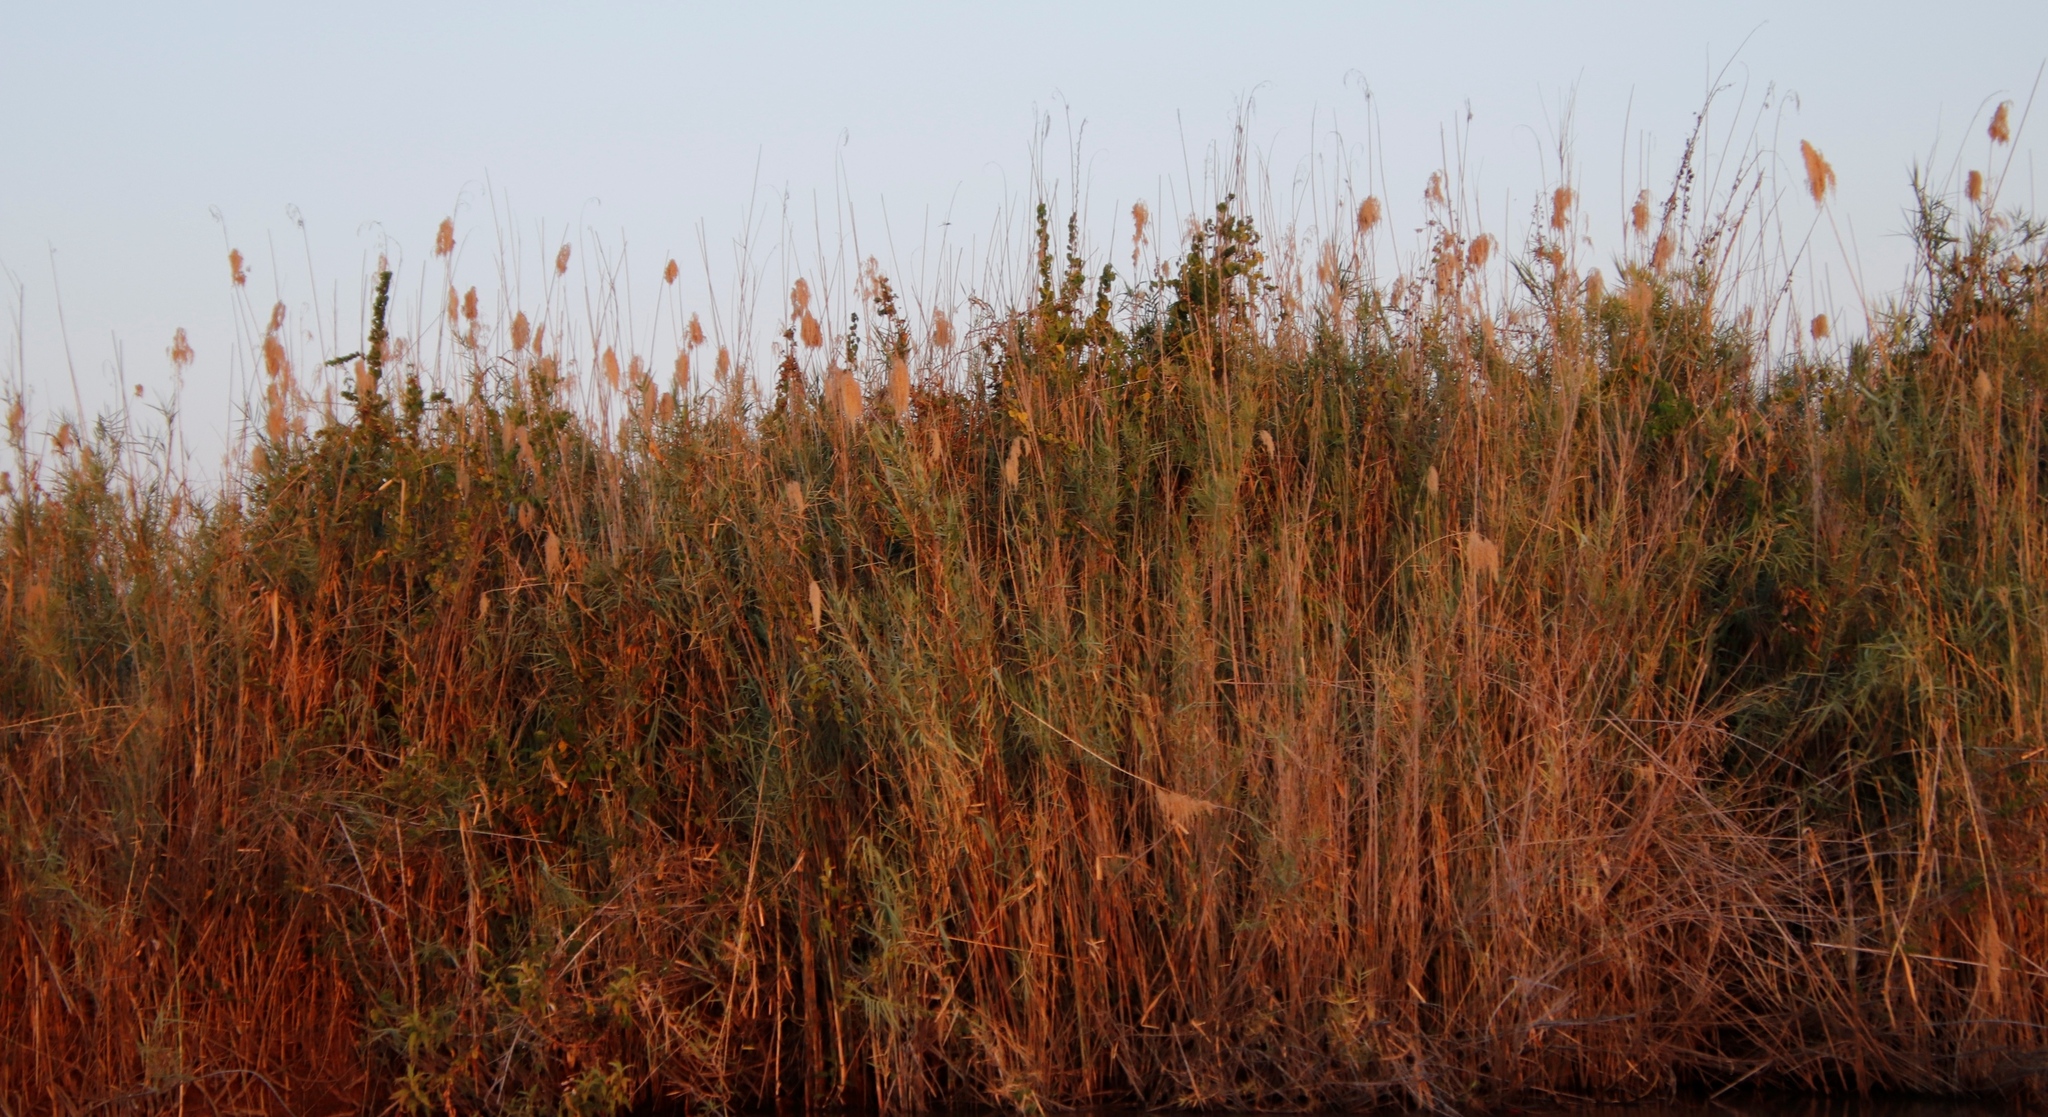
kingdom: Plantae
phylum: Tracheophyta
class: Liliopsida
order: Poales
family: Poaceae
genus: Phragmites
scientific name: Phragmites australis
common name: Common reed
